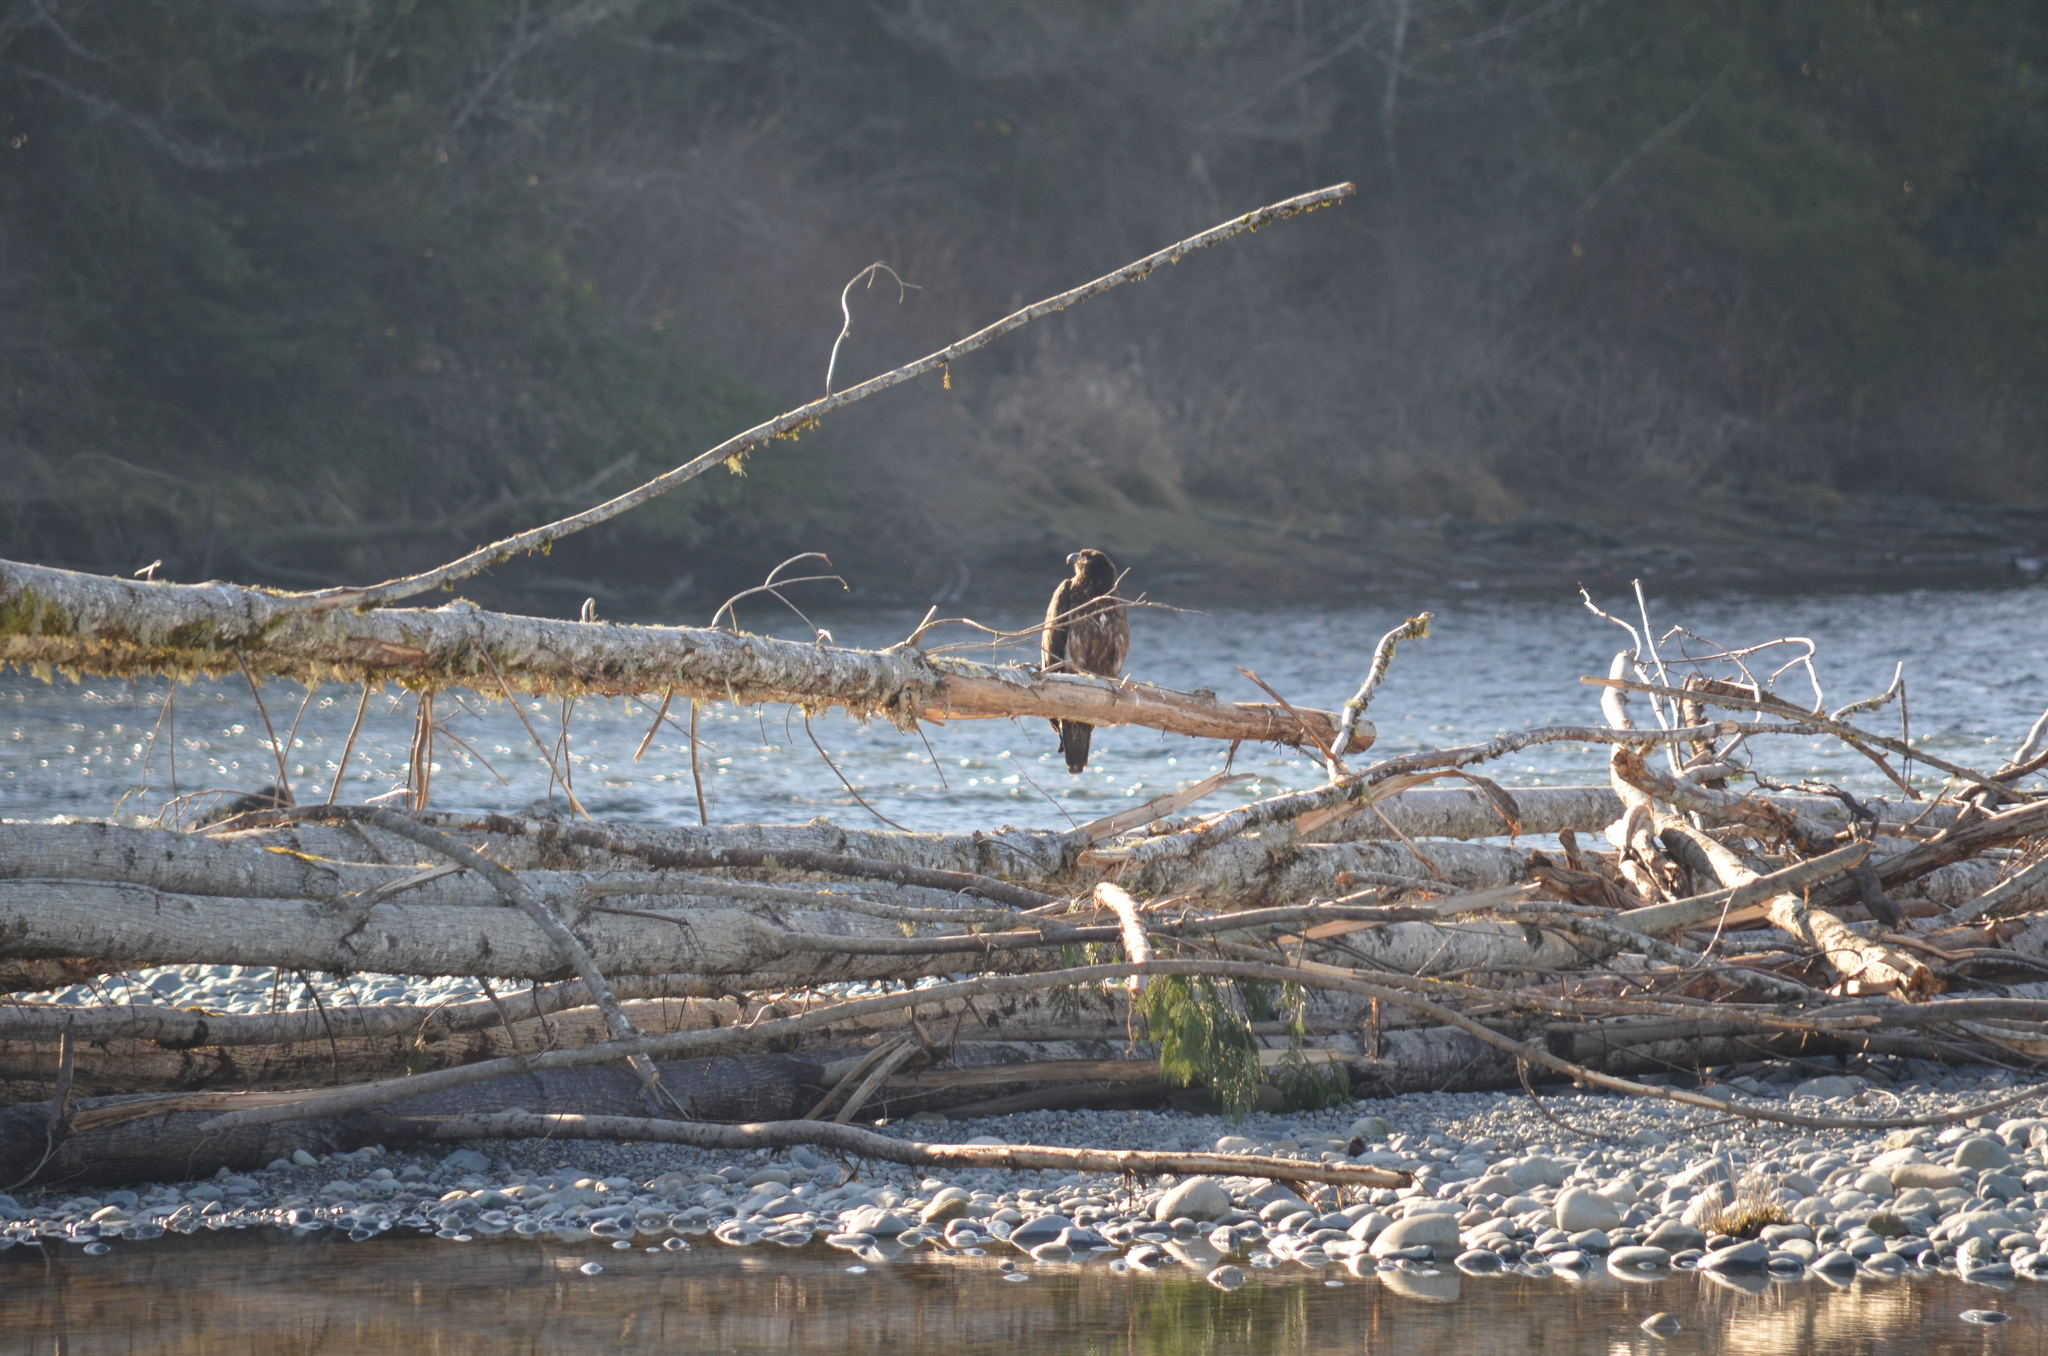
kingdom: Animalia
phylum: Chordata
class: Aves
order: Accipitriformes
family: Accipitridae
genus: Haliaeetus
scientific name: Haliaeetus leucocephalus
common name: Bald eagle
